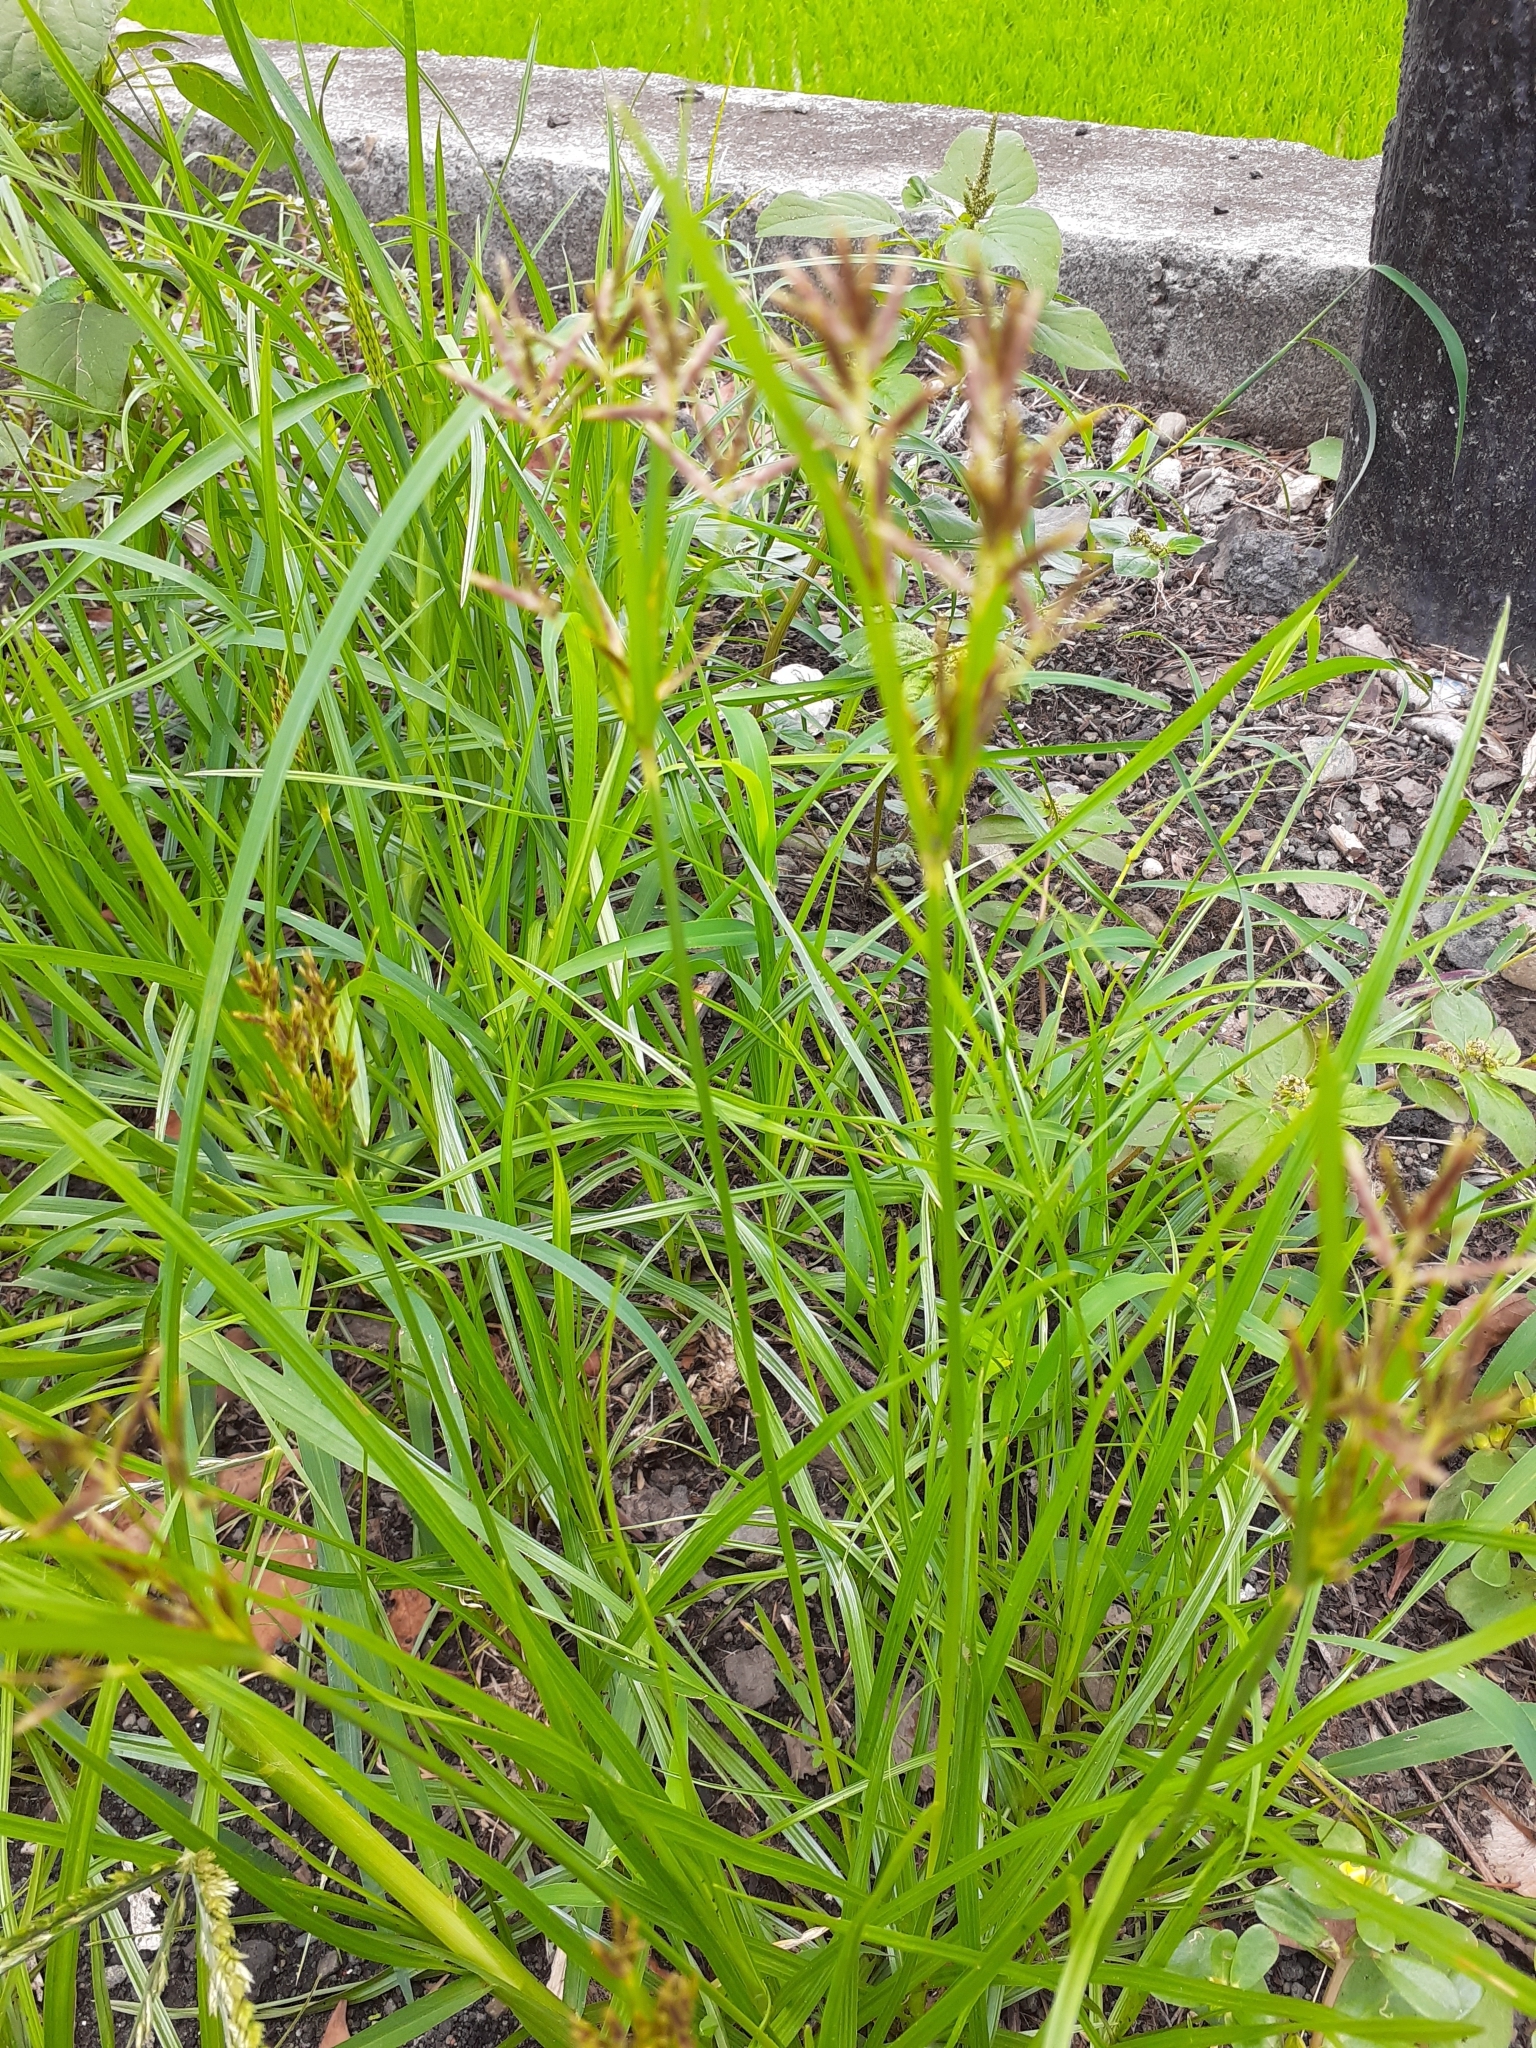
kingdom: Plantae
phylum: Tracheophyta
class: Liliopsida
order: Poales
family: Cyperaceae
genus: Cyperus
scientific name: Cyperus rotundus
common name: Nutgrass
